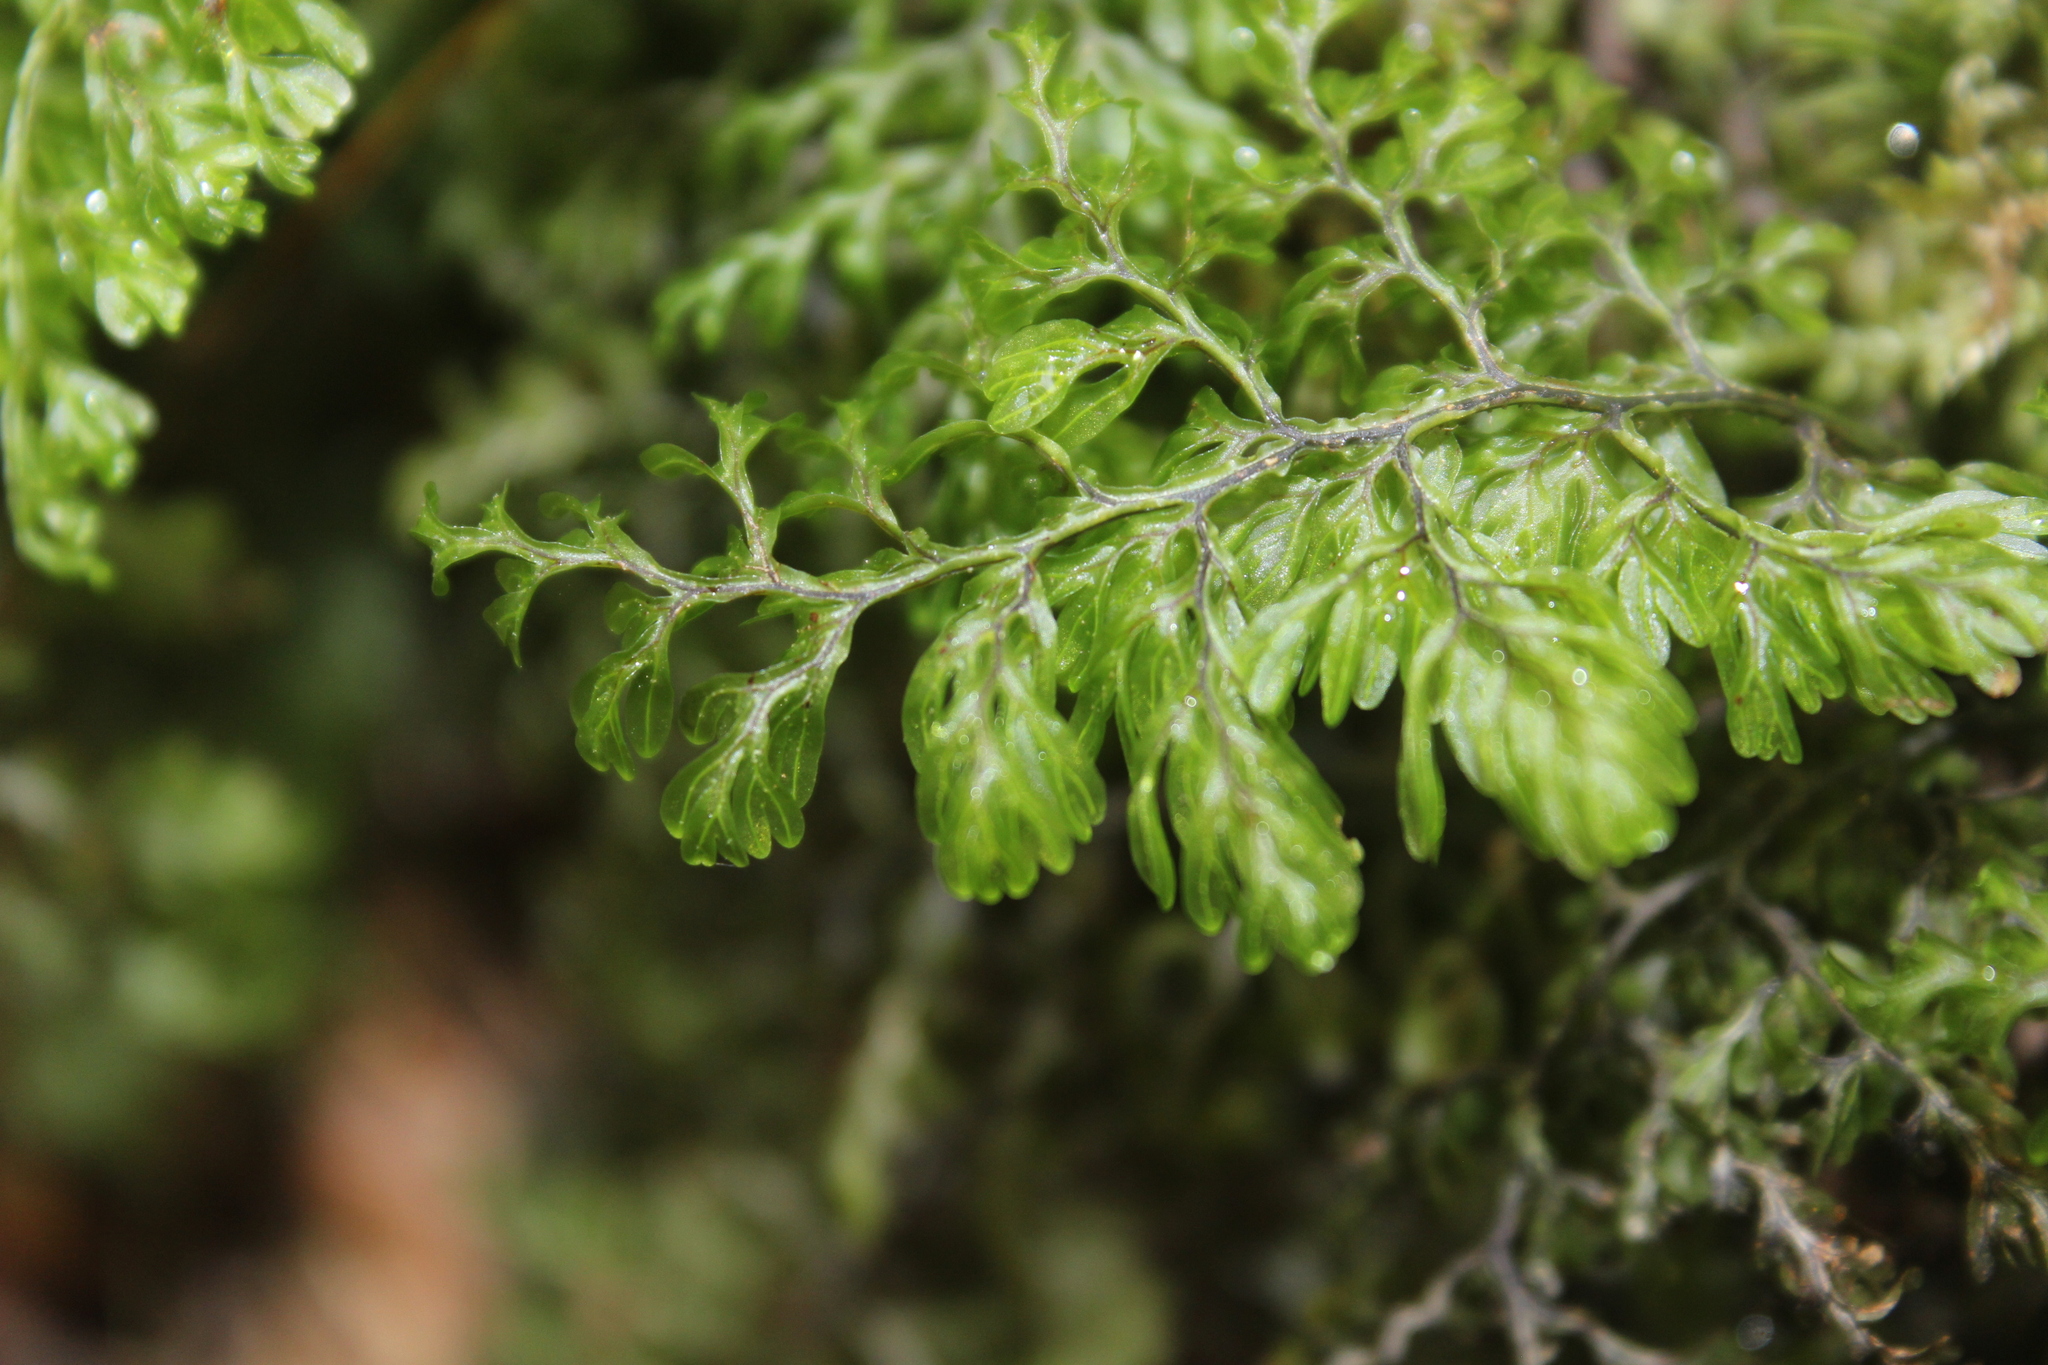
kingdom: Plantae
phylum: Tracheophyta
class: Polypodiopsida
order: Hymenophyllales
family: Hymenophyllaceae
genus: Hymenophyllum
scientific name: Hymenophyllum sanguinolentum
